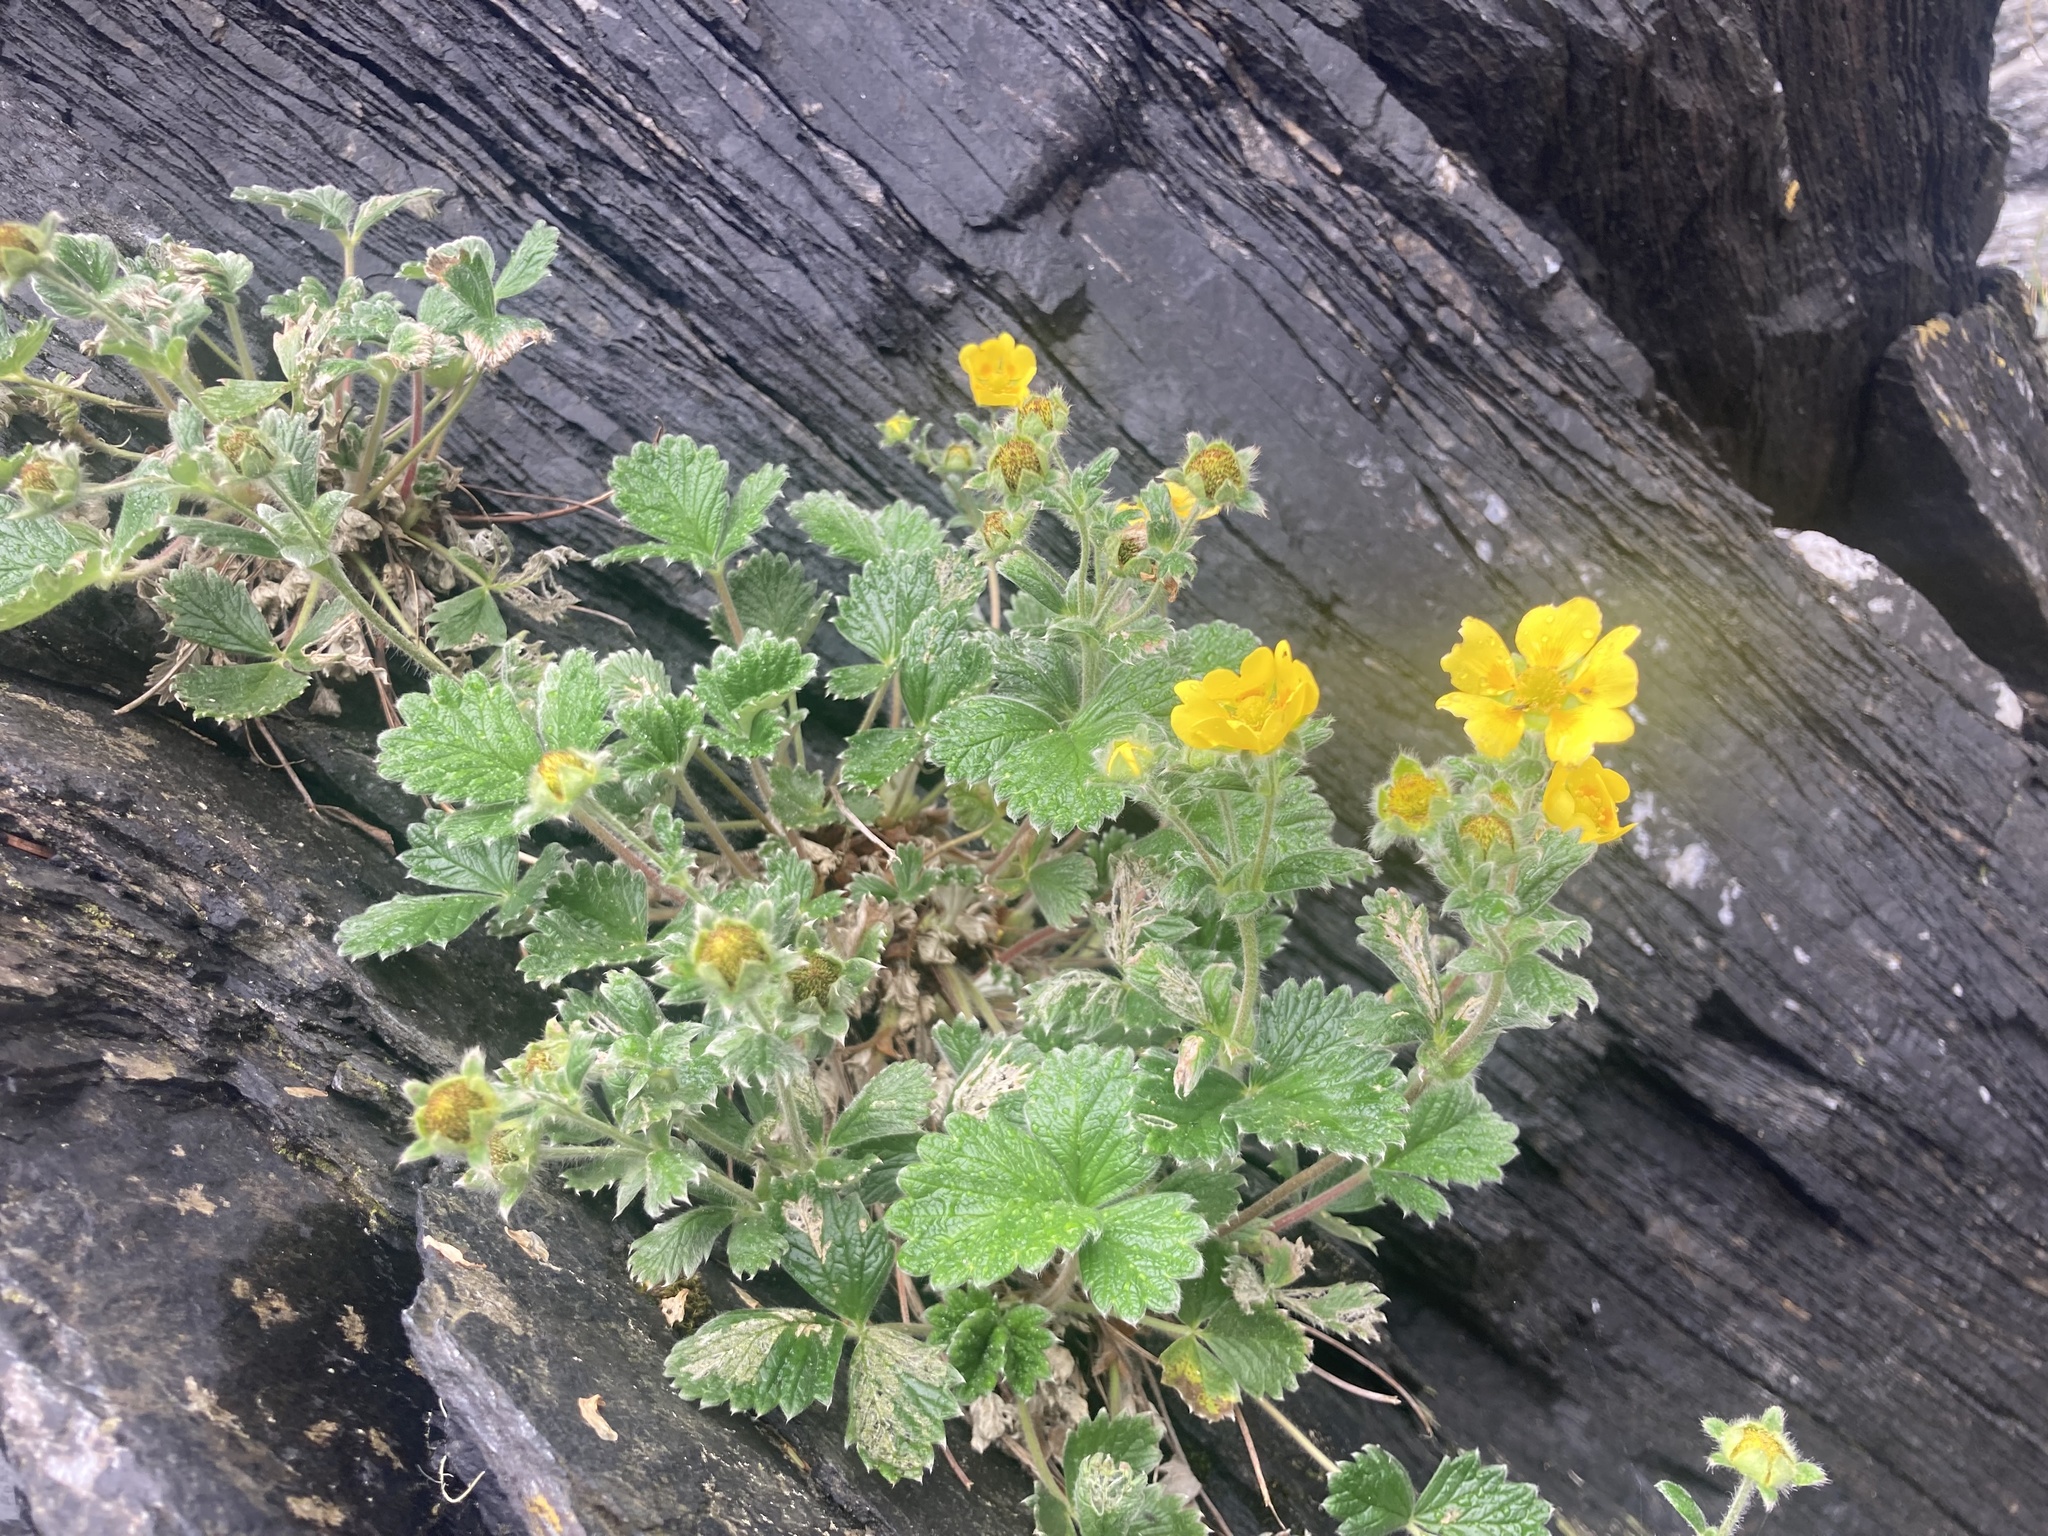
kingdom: Plantae
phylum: Tracheophyta
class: Magnoliopsida
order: Rosales
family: Rosaceae
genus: Potentilla
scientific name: Potentilla villosa
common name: Northern cinquefoil
